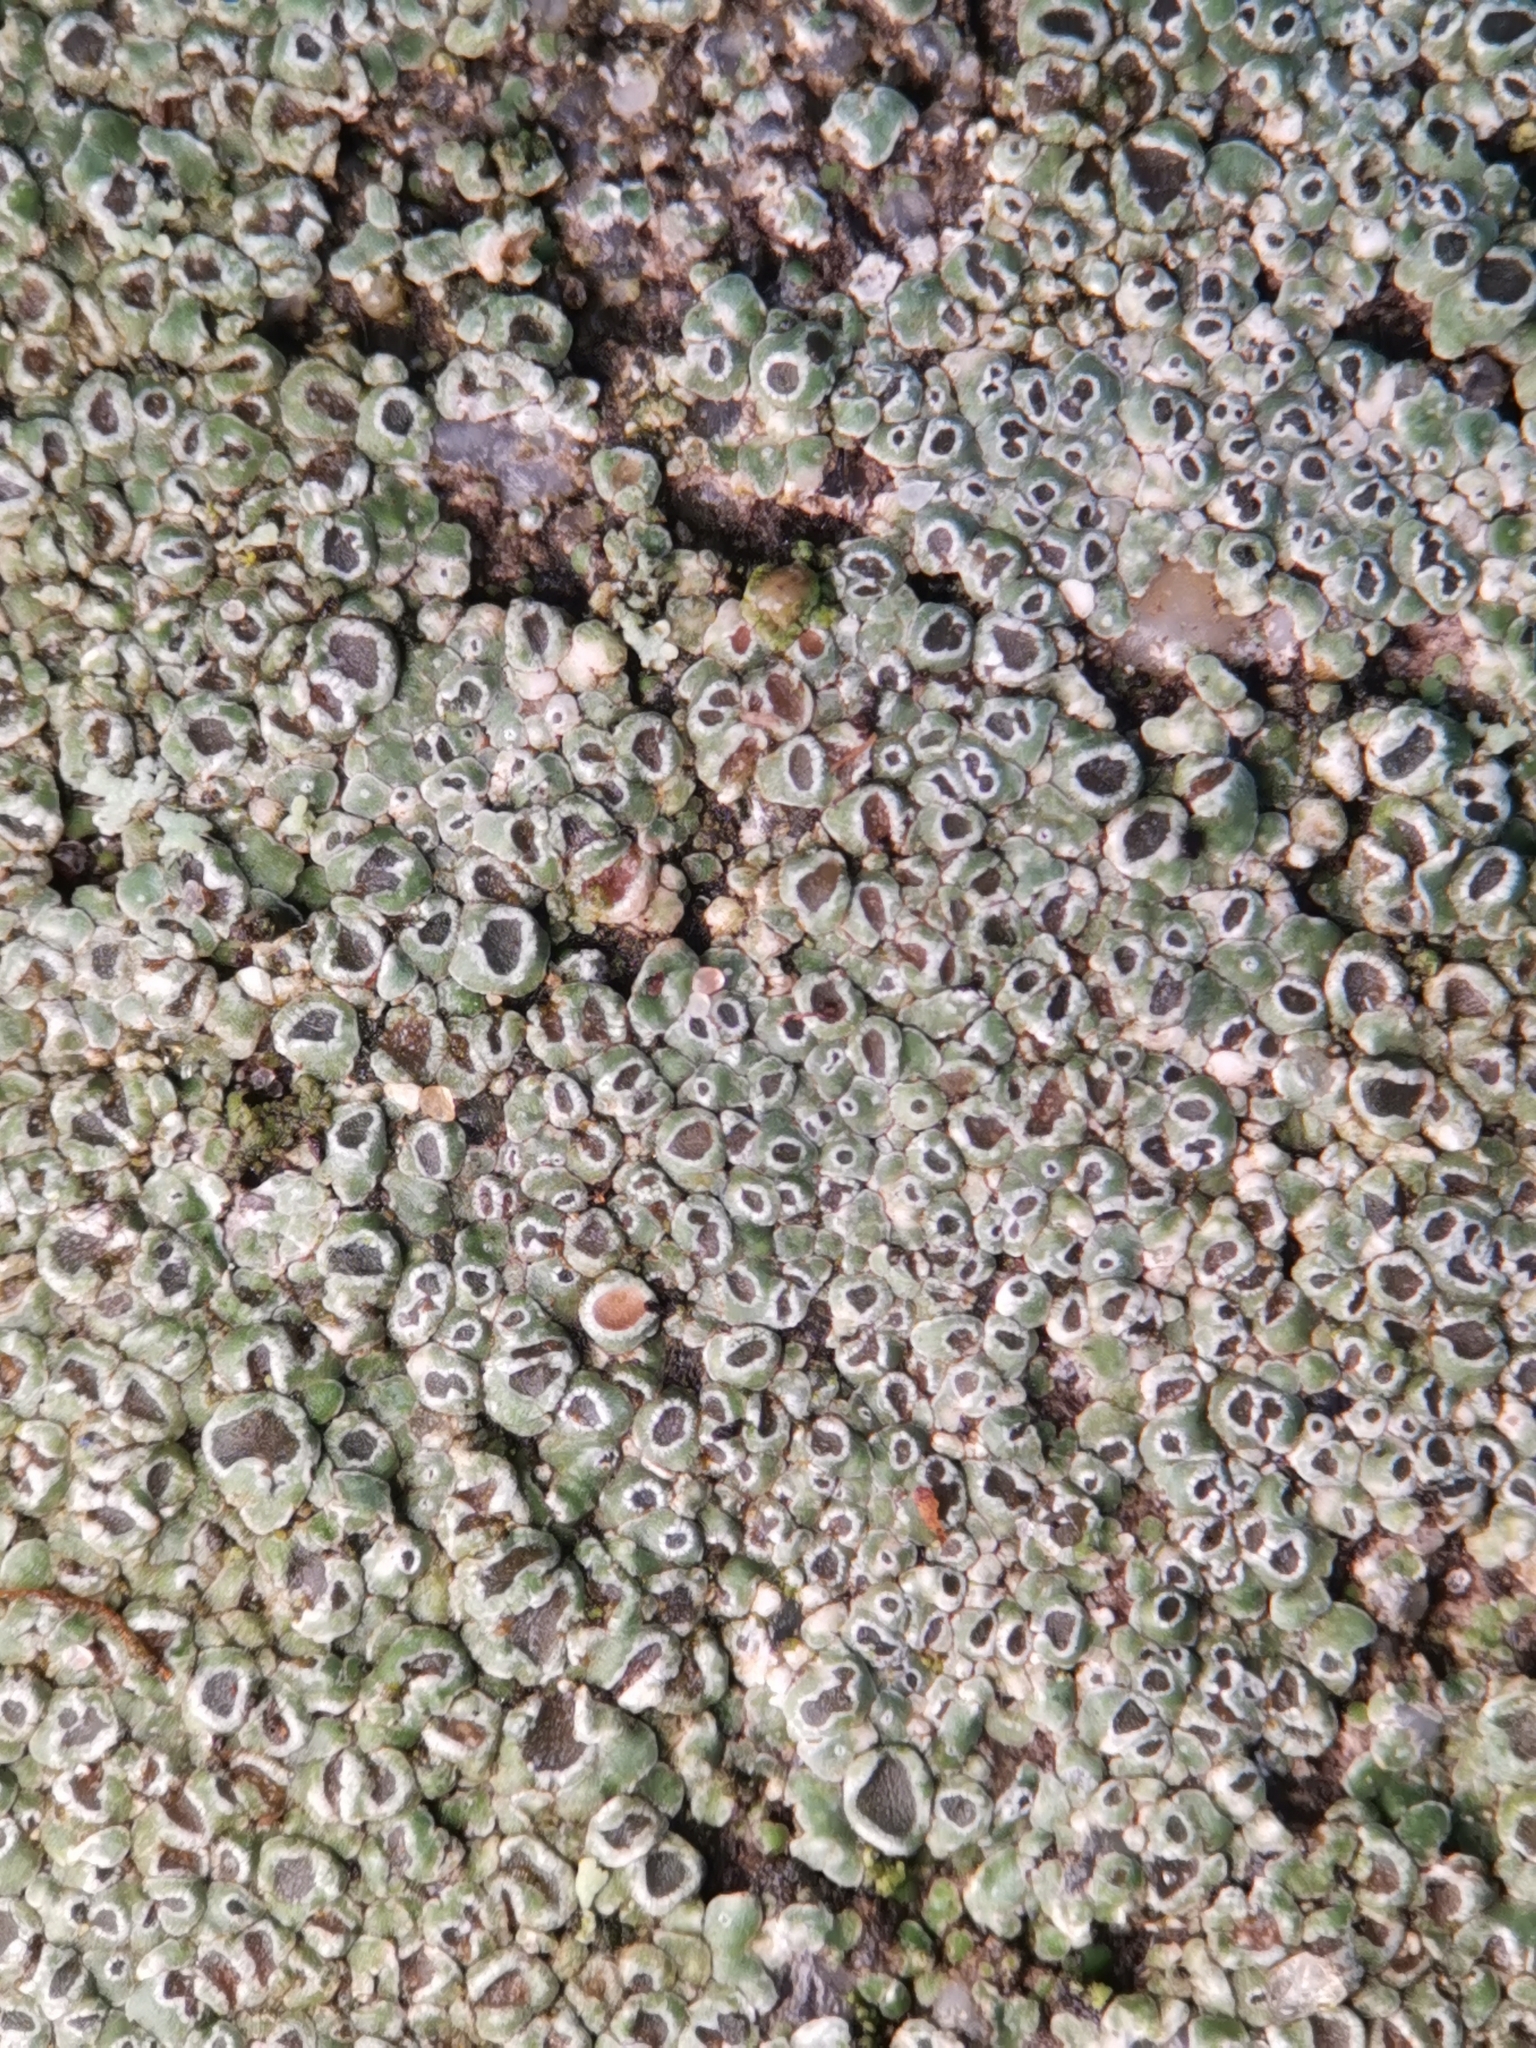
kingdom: Fungi
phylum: Ascomycota
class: Lecanoromycetes
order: Pertusariales
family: Megasporaceae
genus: Circinaria
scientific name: Circinaria contorta
